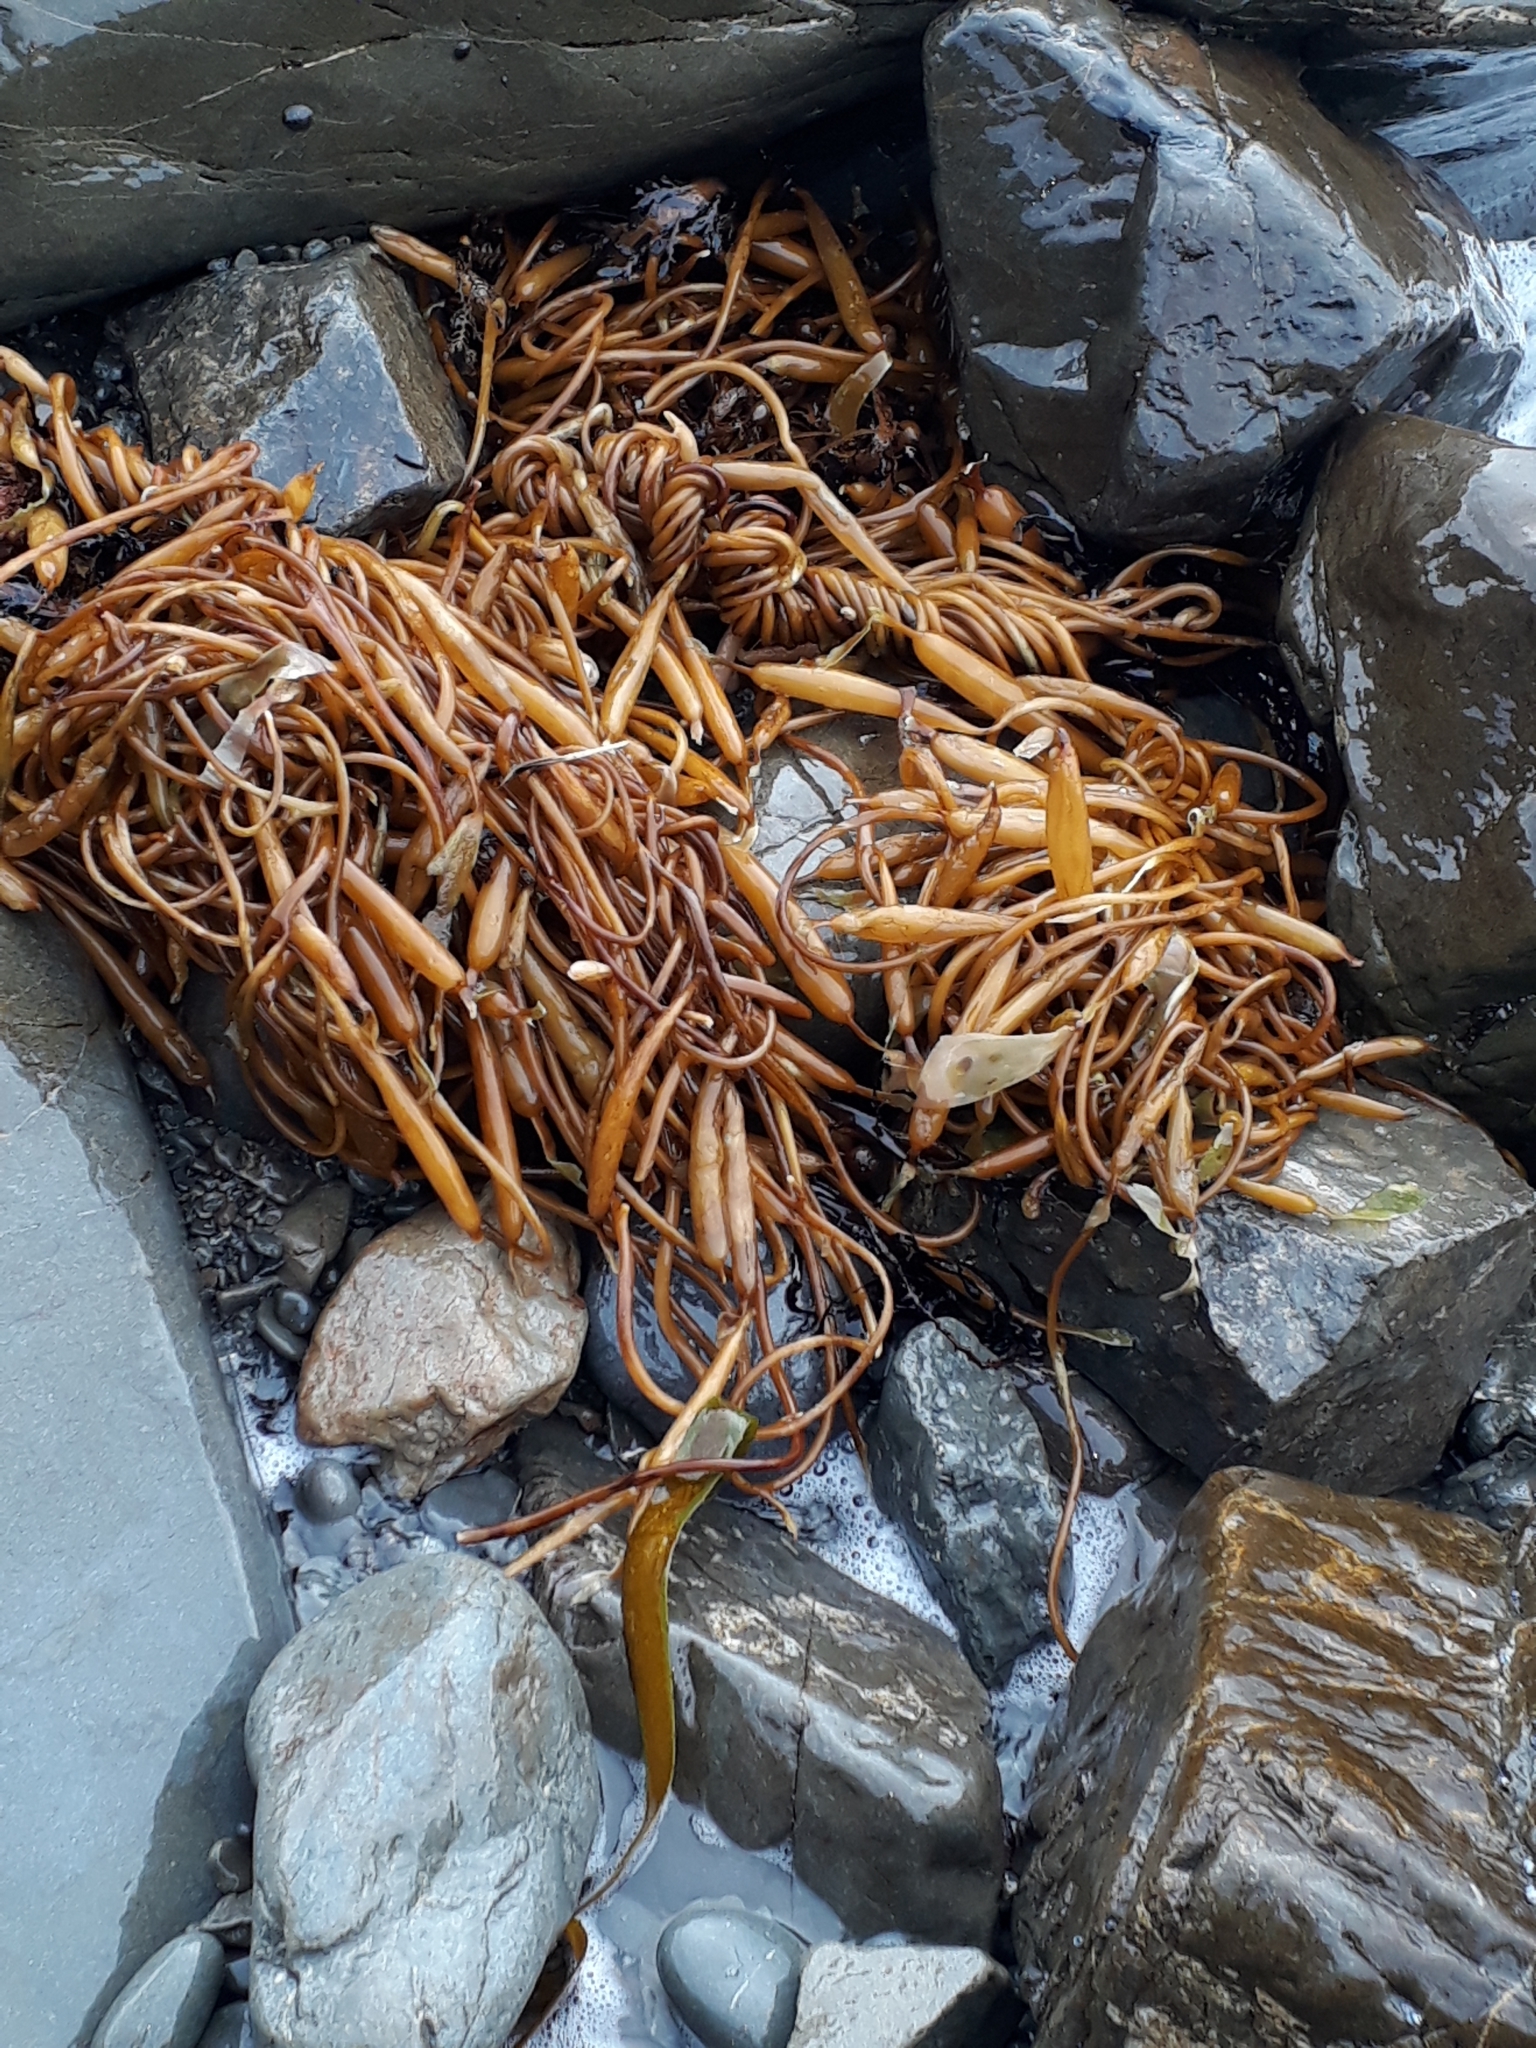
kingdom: Chromista
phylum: Ochrophyta
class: Phaeophyceae
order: Laminariales
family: Laminariaceae
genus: Macrocystis
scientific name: Macrocystis pyrifera
